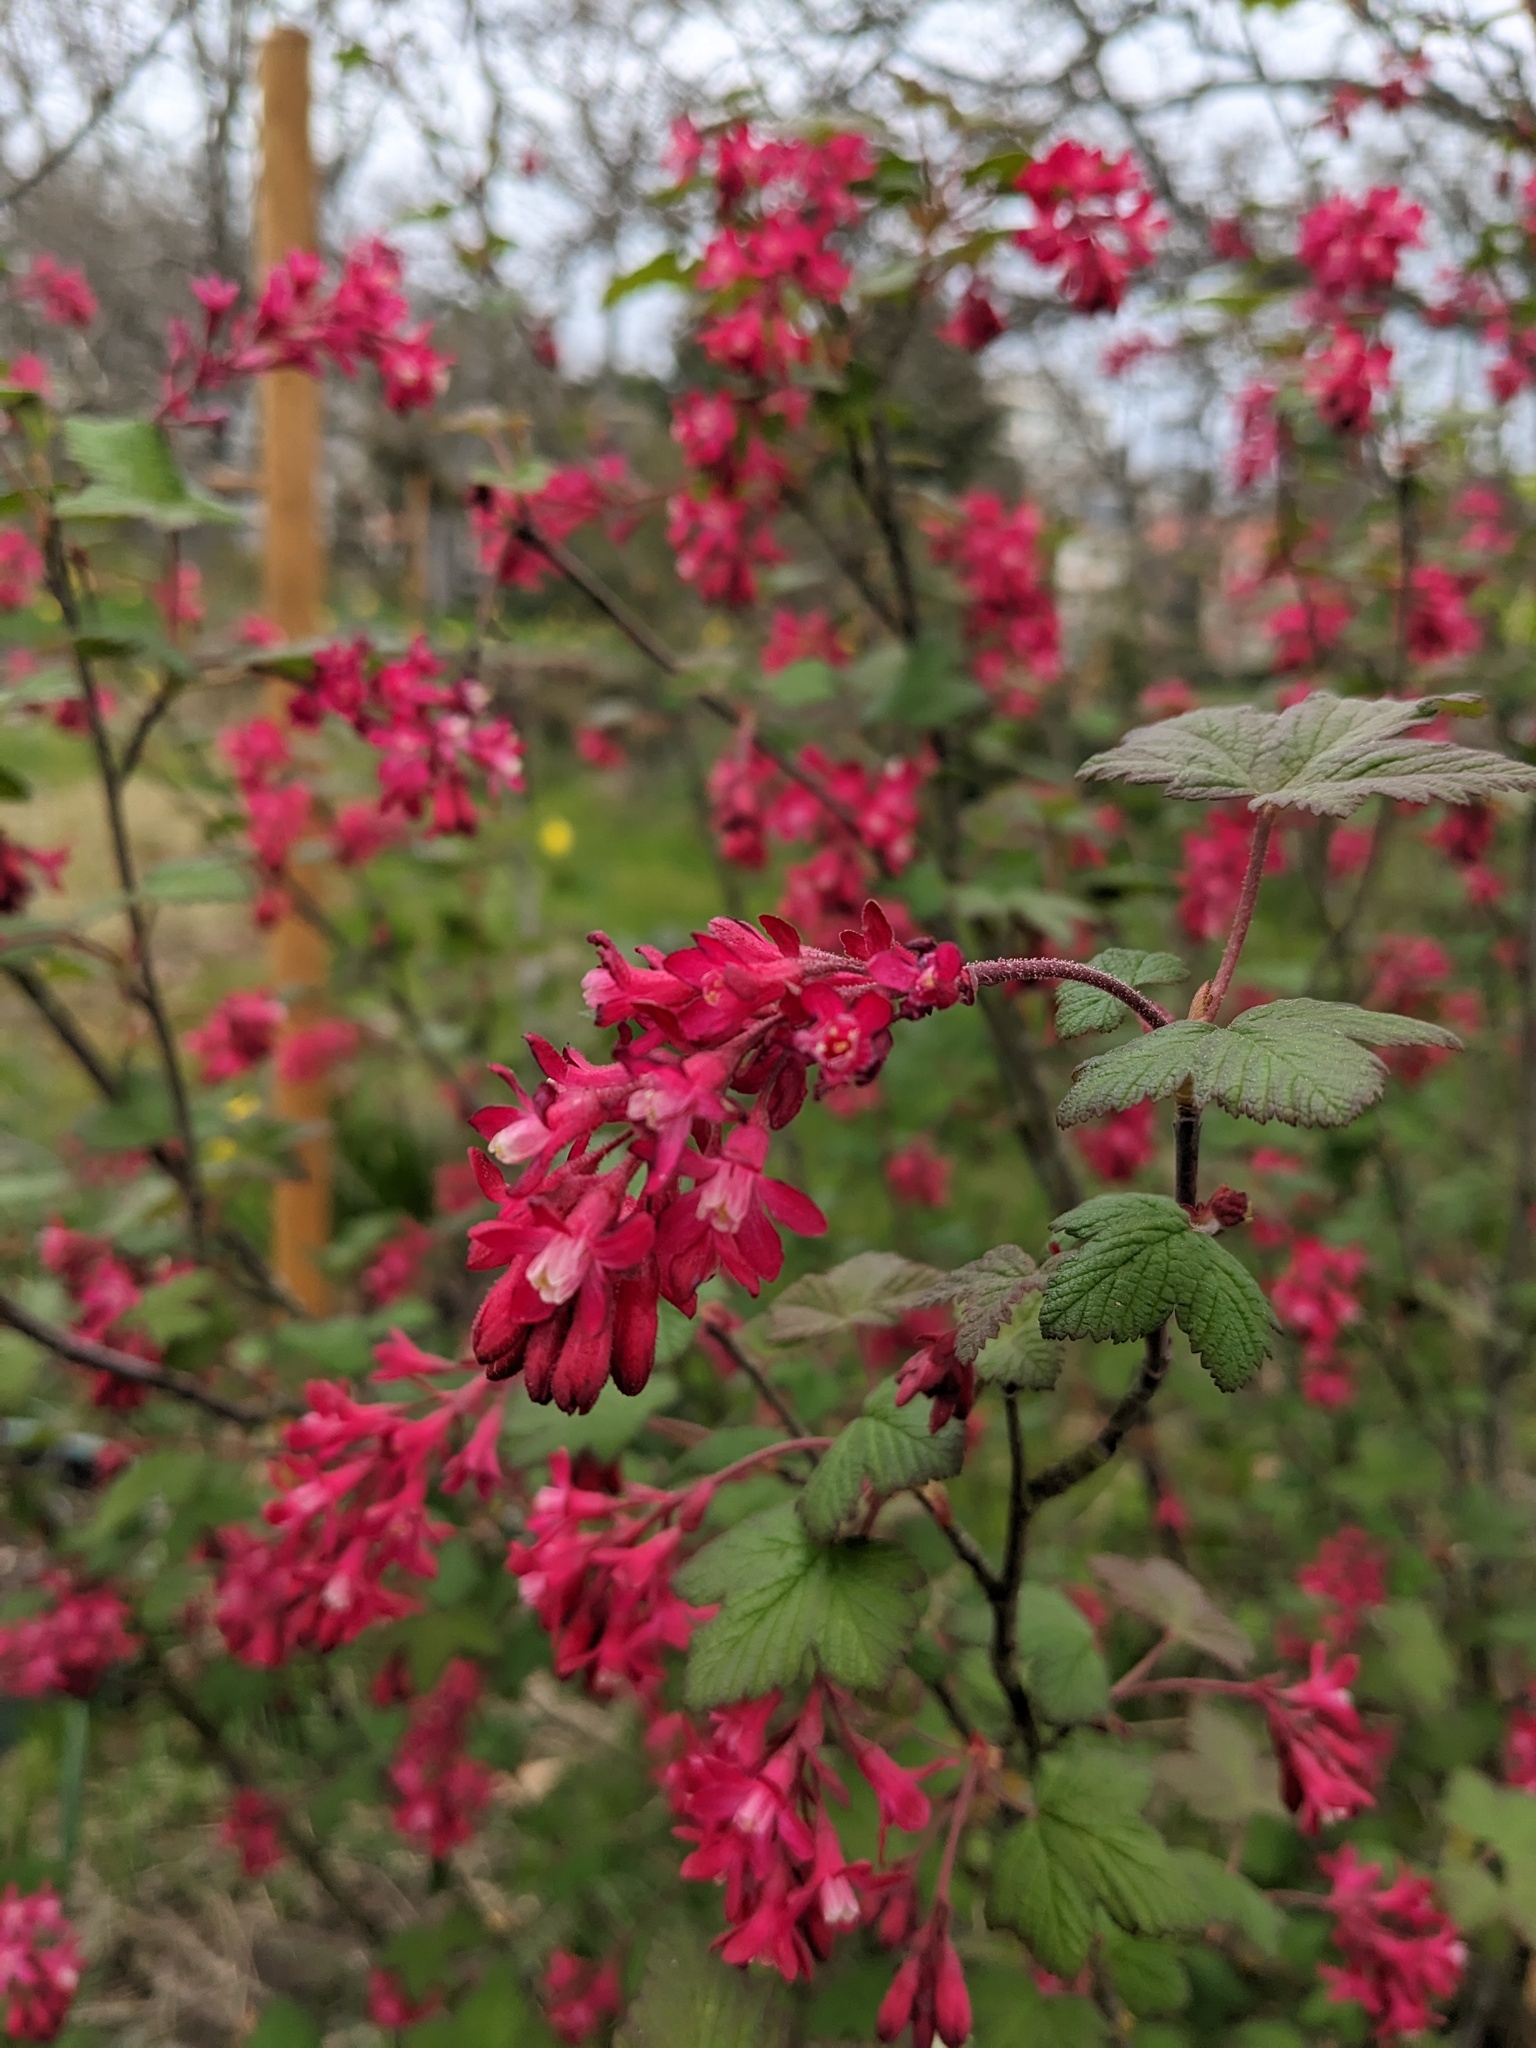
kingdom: Plantae
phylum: Tracheophyta
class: Magnoliopsida
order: Saxifragales
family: Grossulariaceae
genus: Ribes
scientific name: Ribes sanguineum
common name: Flowering currant
